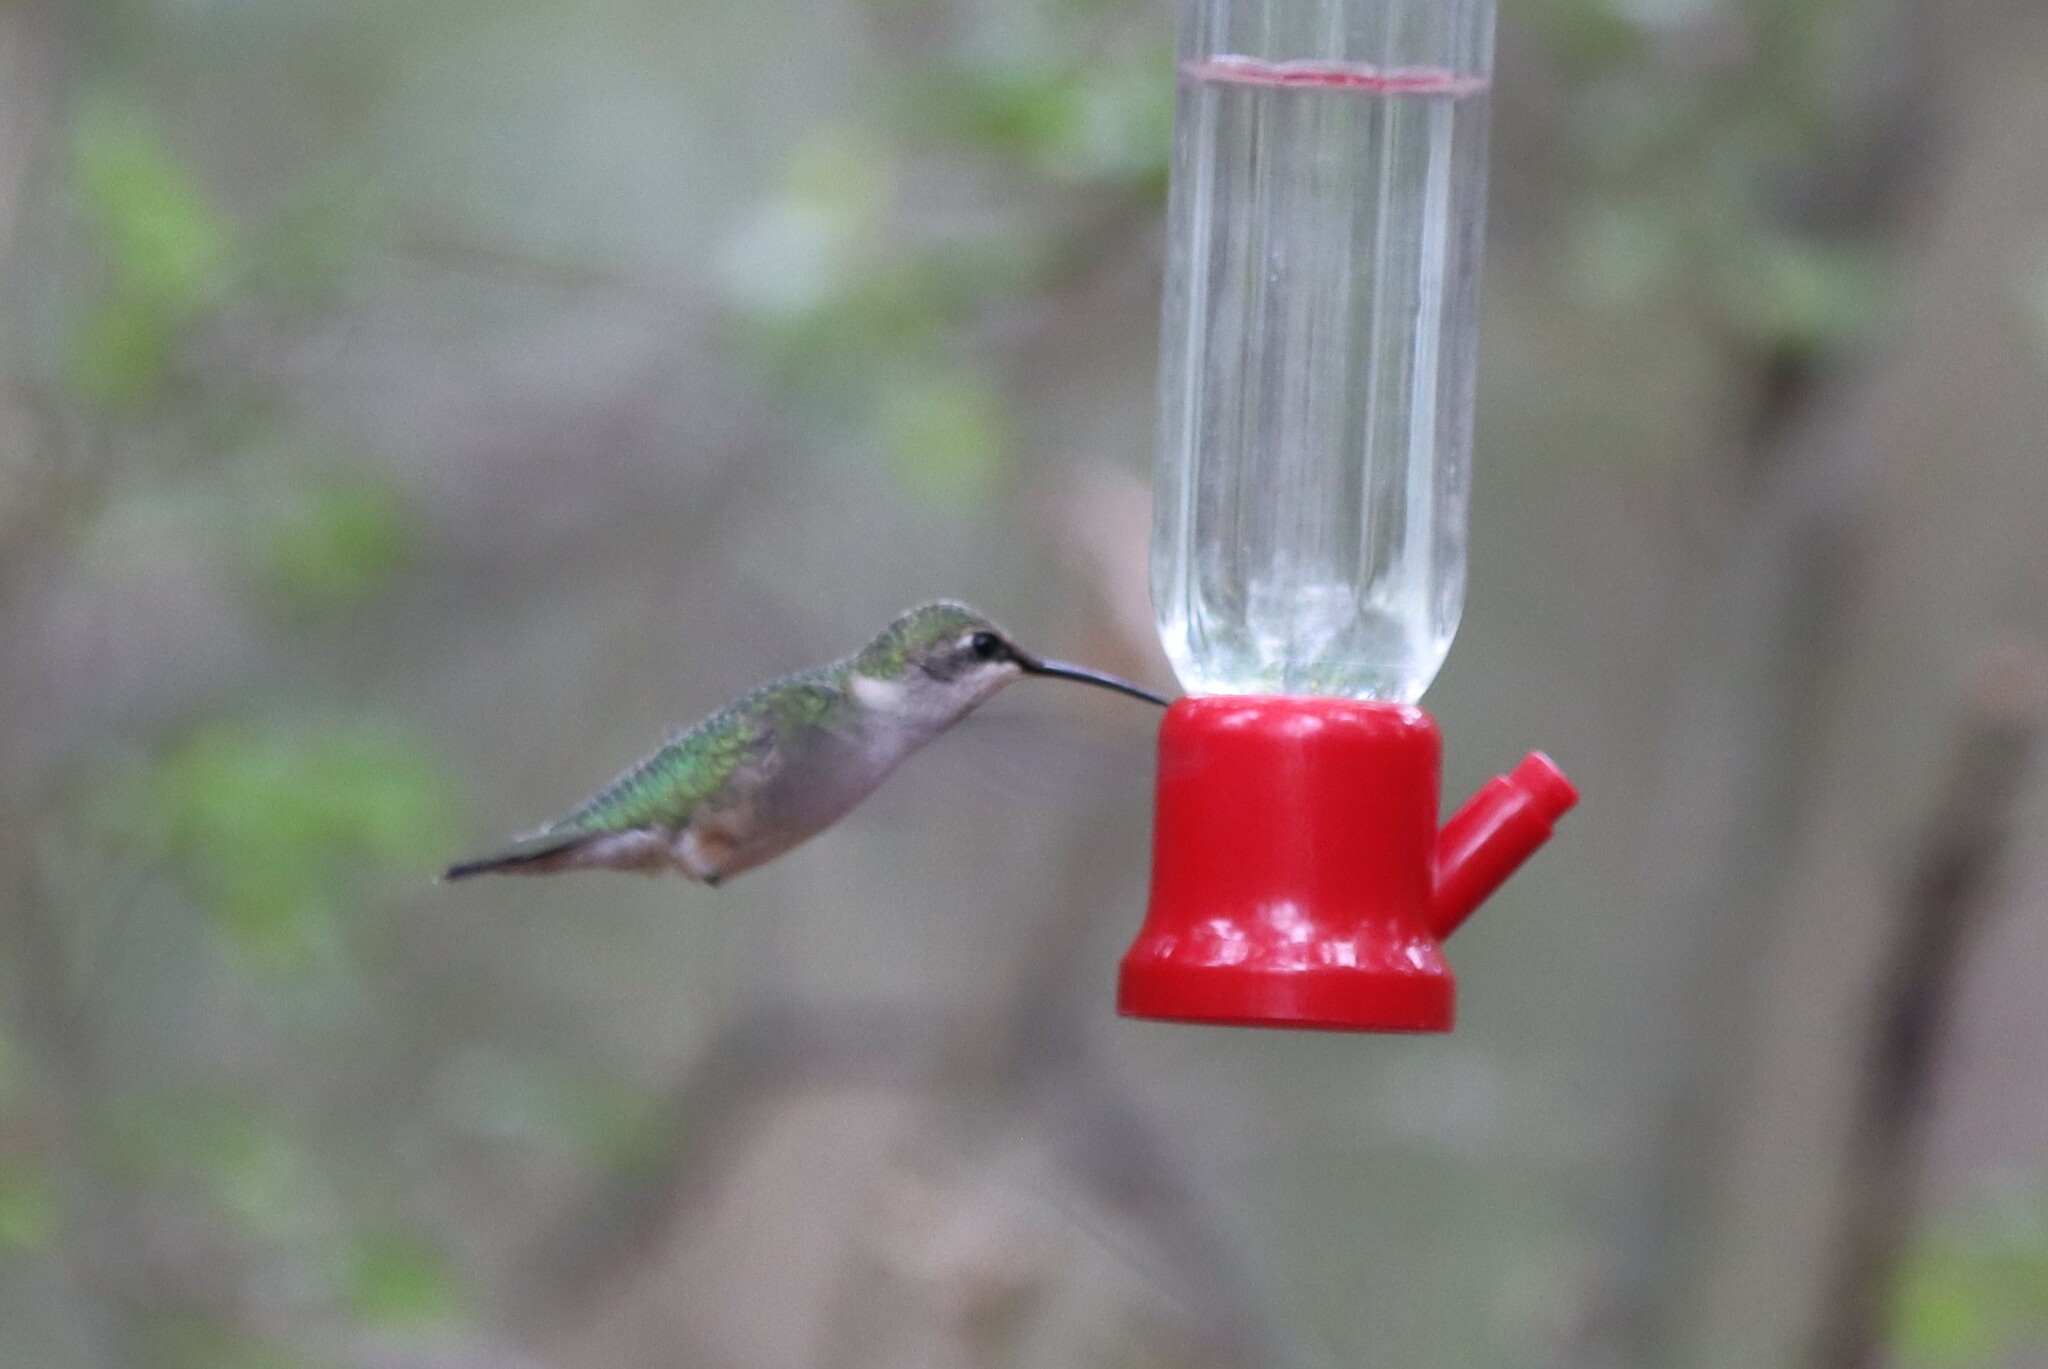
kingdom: Animalia
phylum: Chordata
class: Aves
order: Apodiformes
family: Trochilidae
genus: Archilochus
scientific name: Archilochus colubris
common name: Ruby-throated hummingbird
